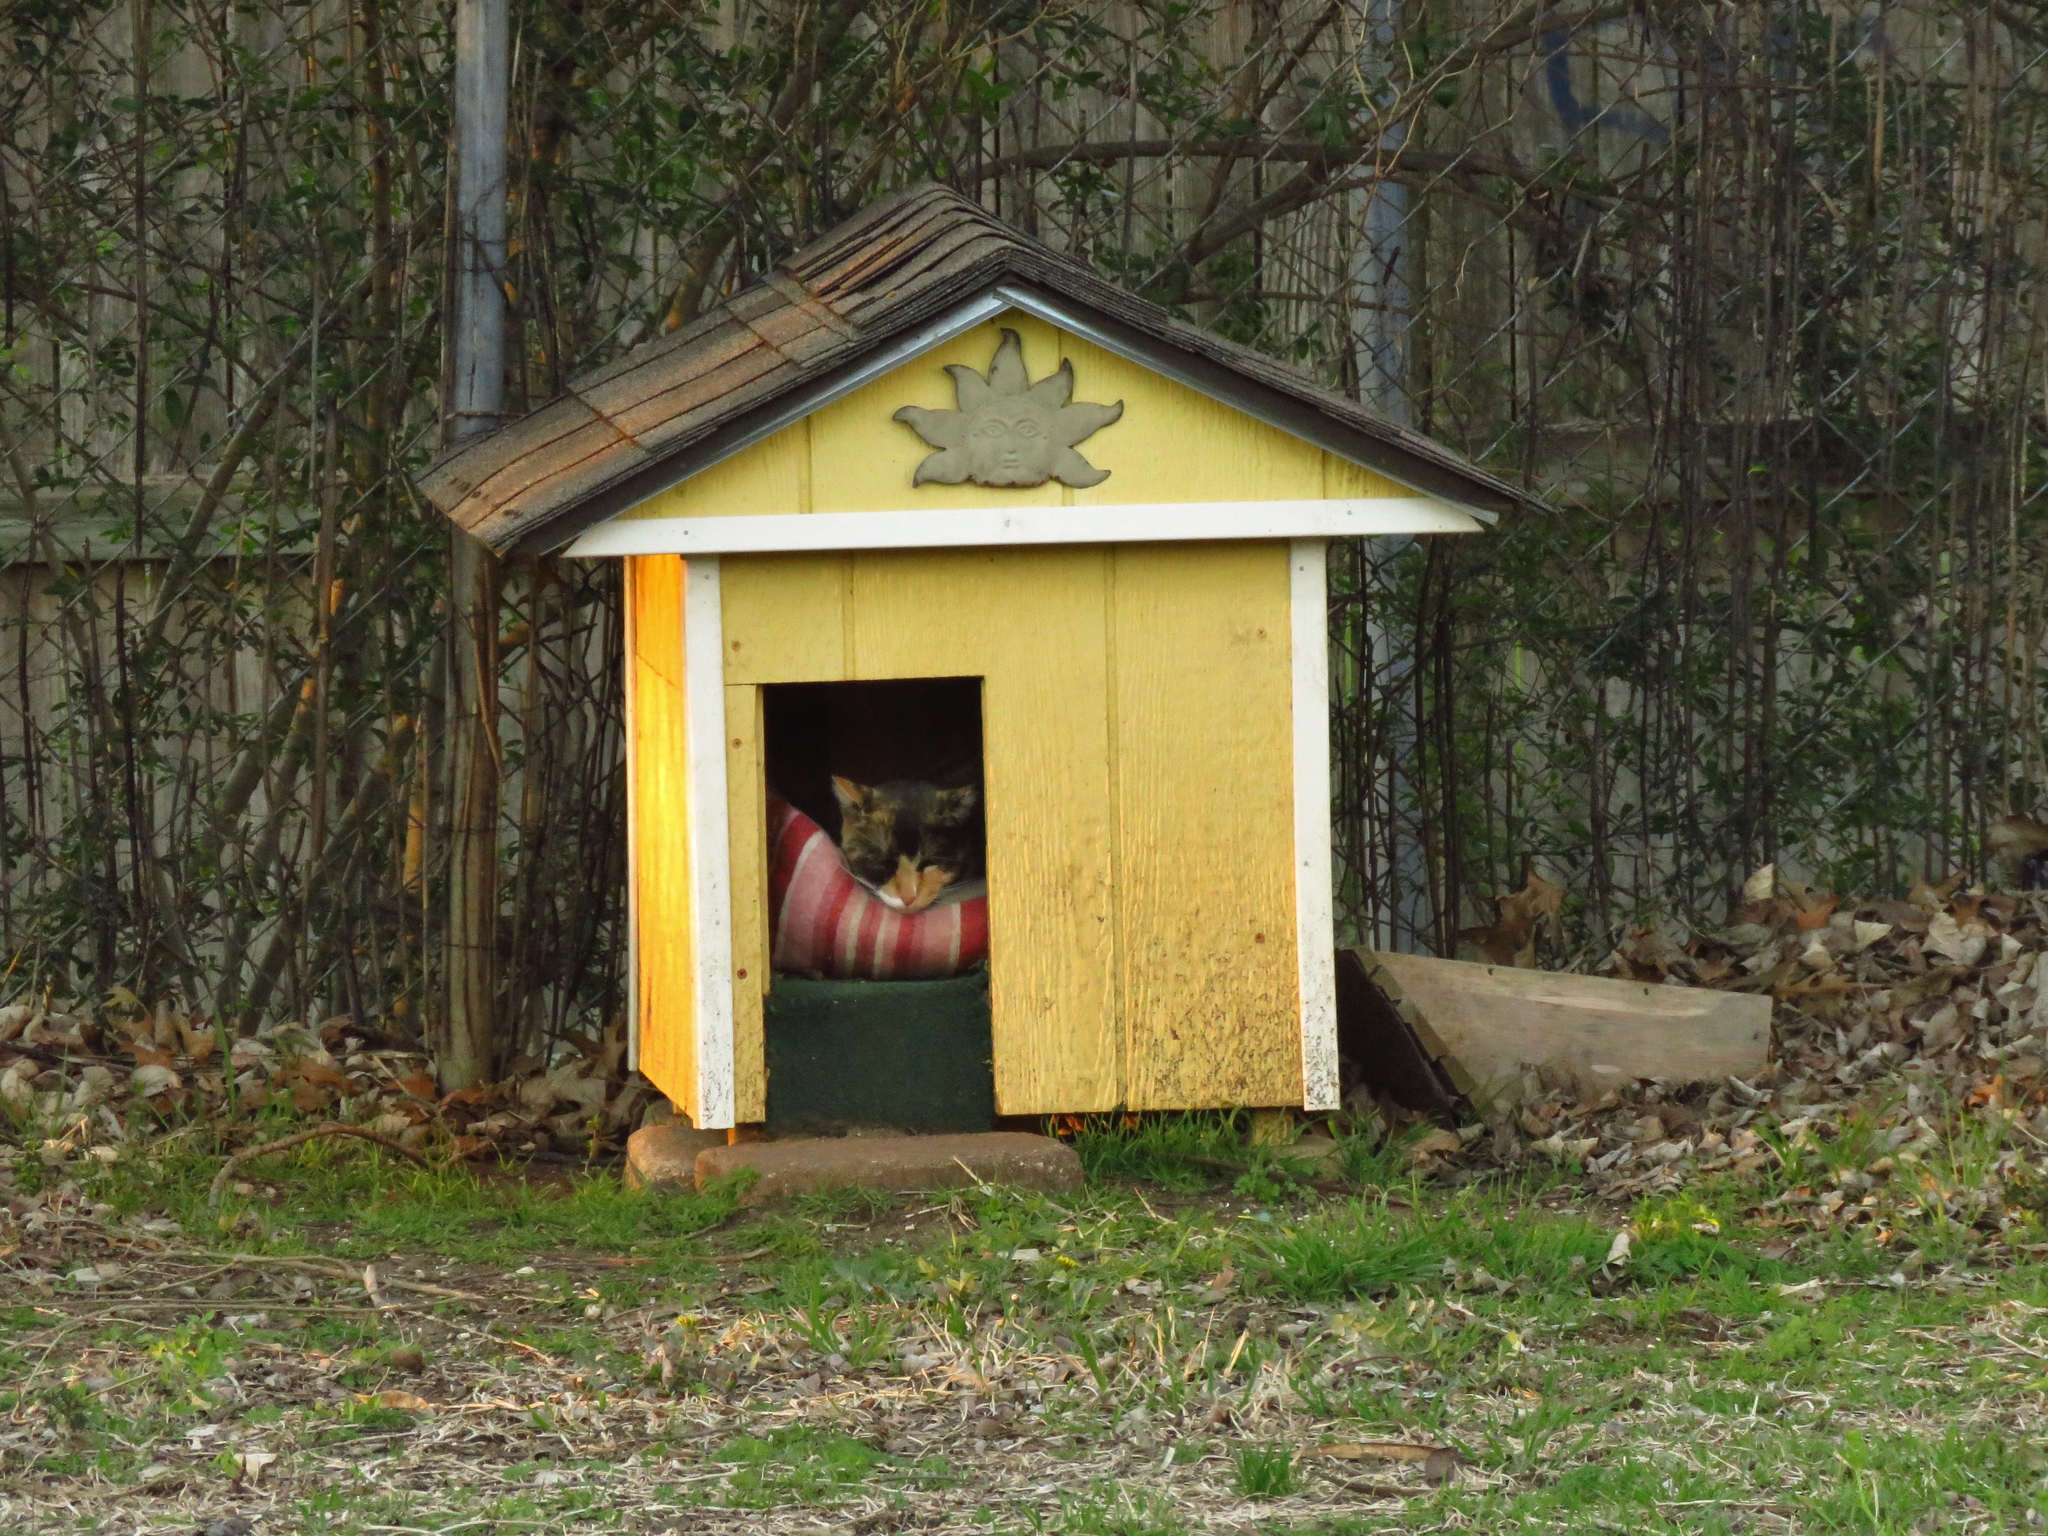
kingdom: Animalia
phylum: Chordata
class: Mammalia
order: Carnivora
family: Felidae
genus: Felis
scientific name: Felis catus
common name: Domestic cat
